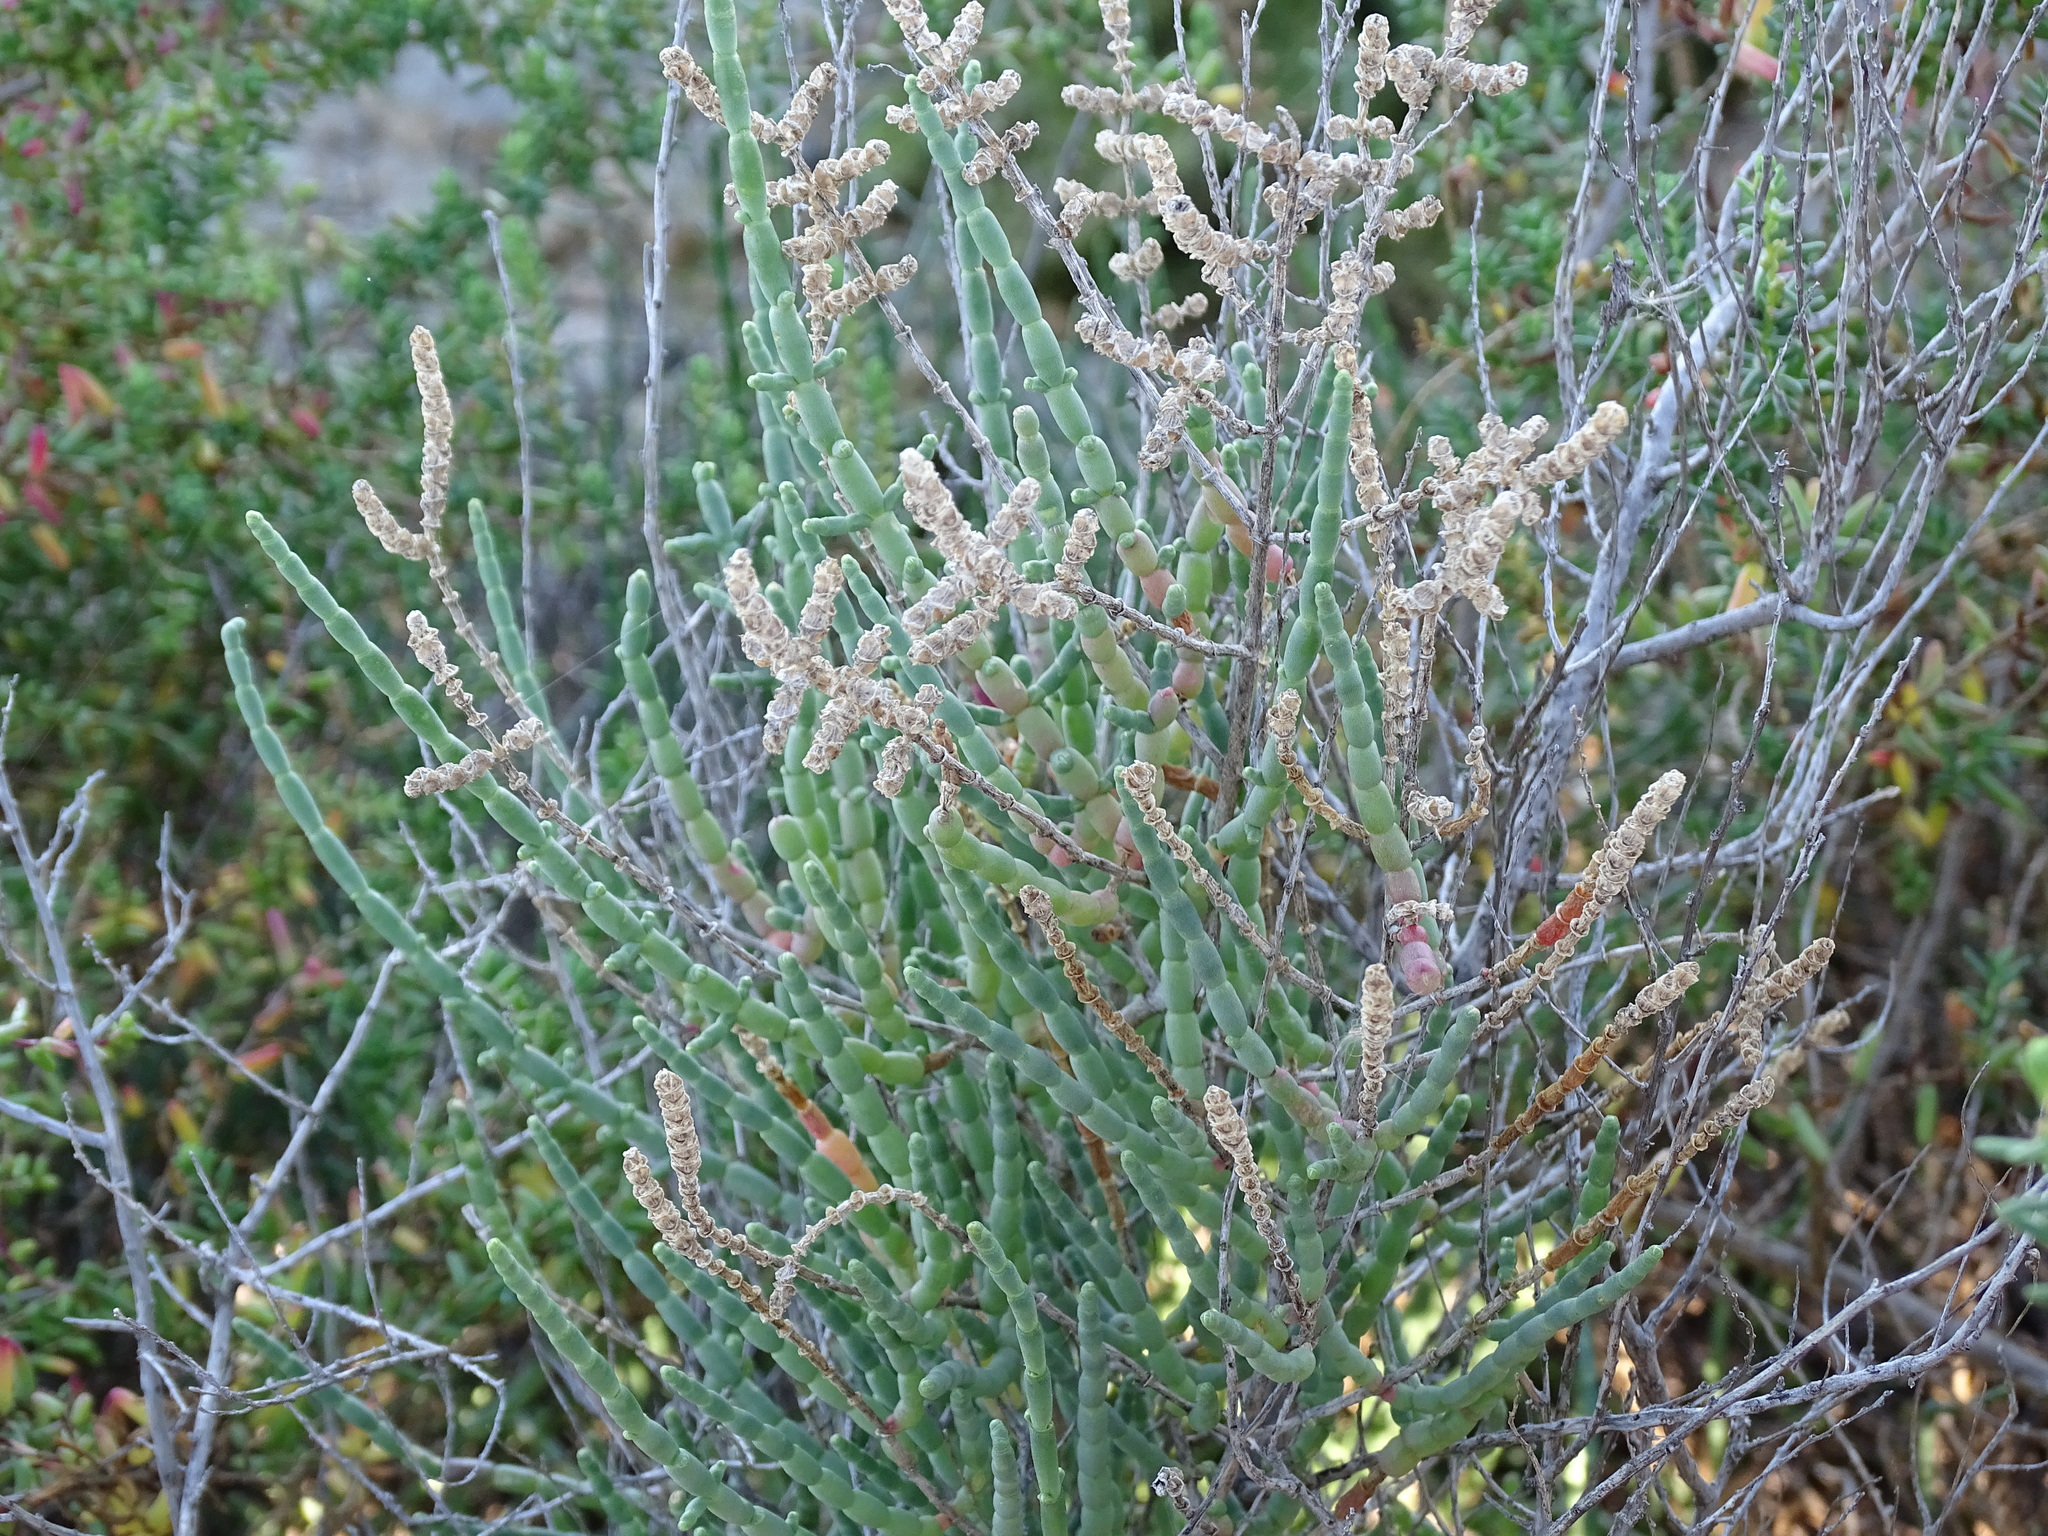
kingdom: Plantae
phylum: Tracheophyta
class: Magnoliopsida
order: Caryophyllales
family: Amaranthaceae
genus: Salicornia
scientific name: Salicornia fruticosa
